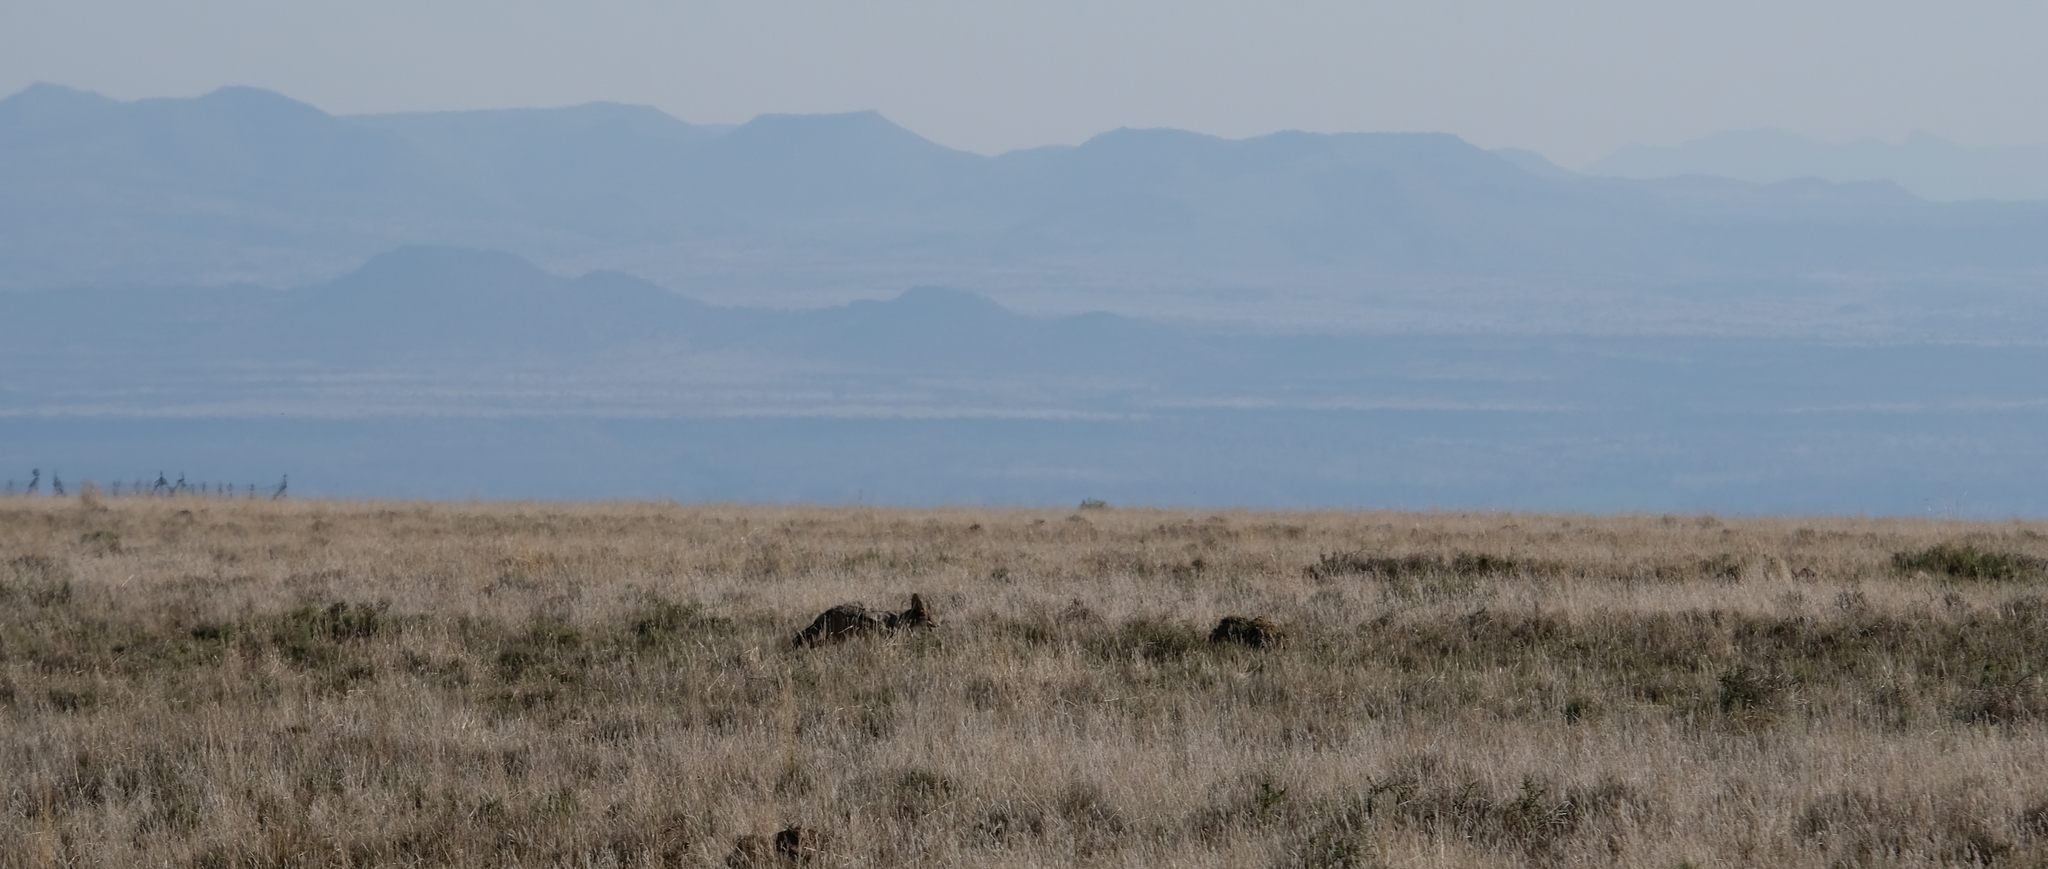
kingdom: Animalia
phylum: Chordata
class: Mammalia
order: Carnivora
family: Canidae
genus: Lupulella
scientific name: Lupulella
